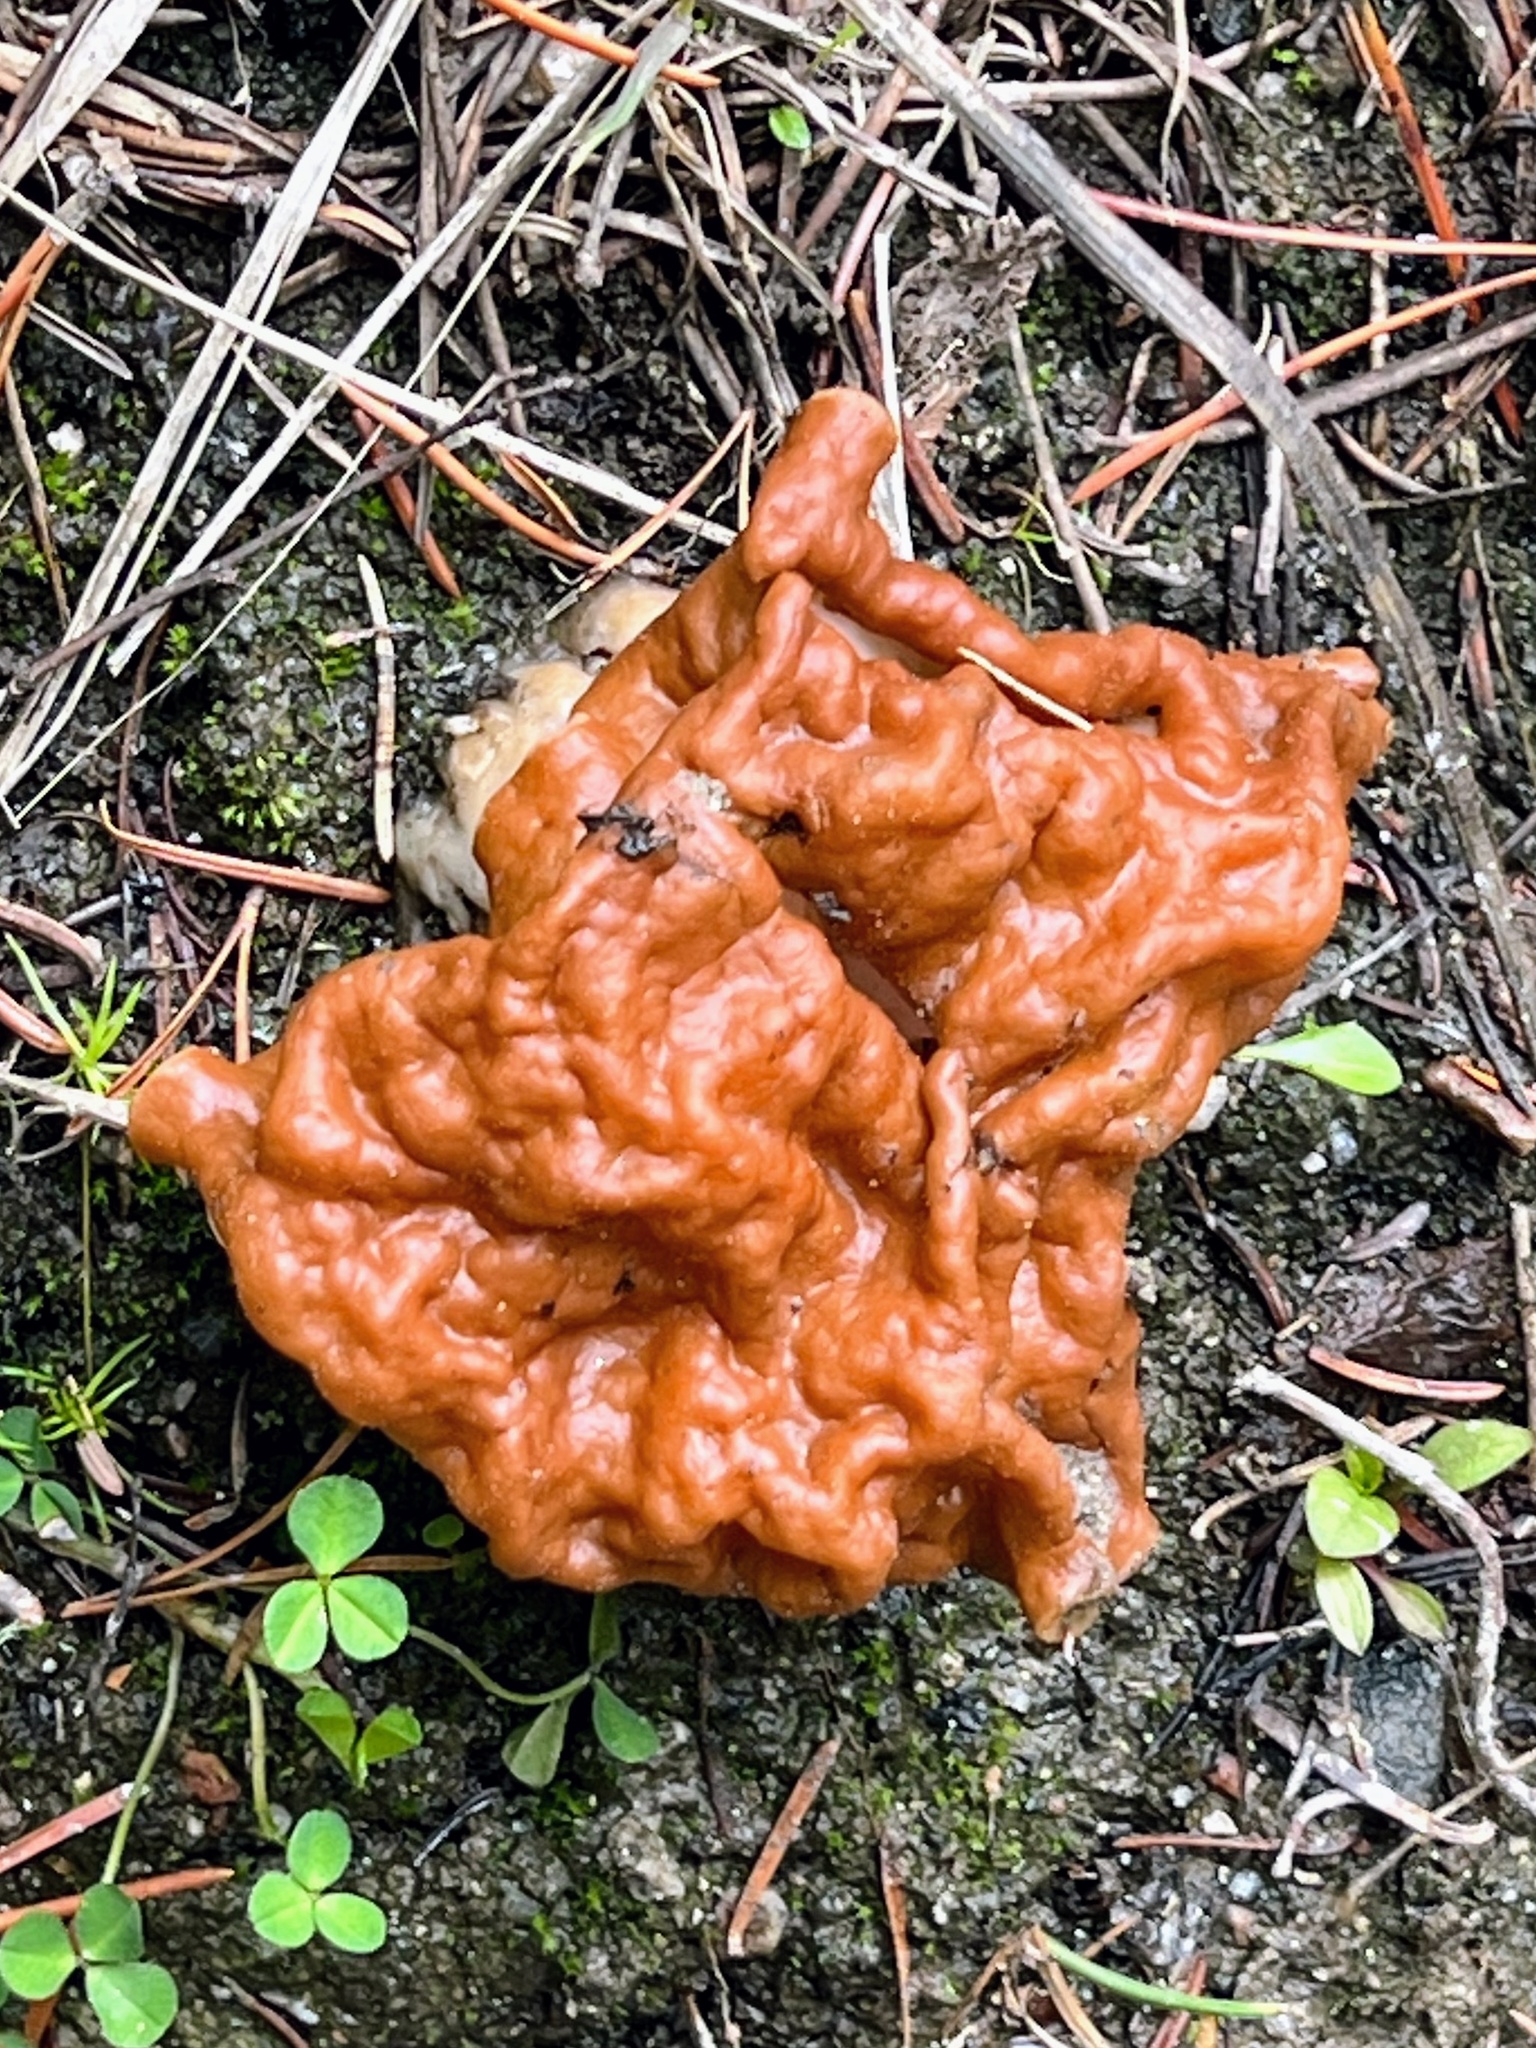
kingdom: Fungi
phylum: Ascomycota
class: Pezizomycetes
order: Pezizales
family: Discinaceae
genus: Discina
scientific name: Discina montana
